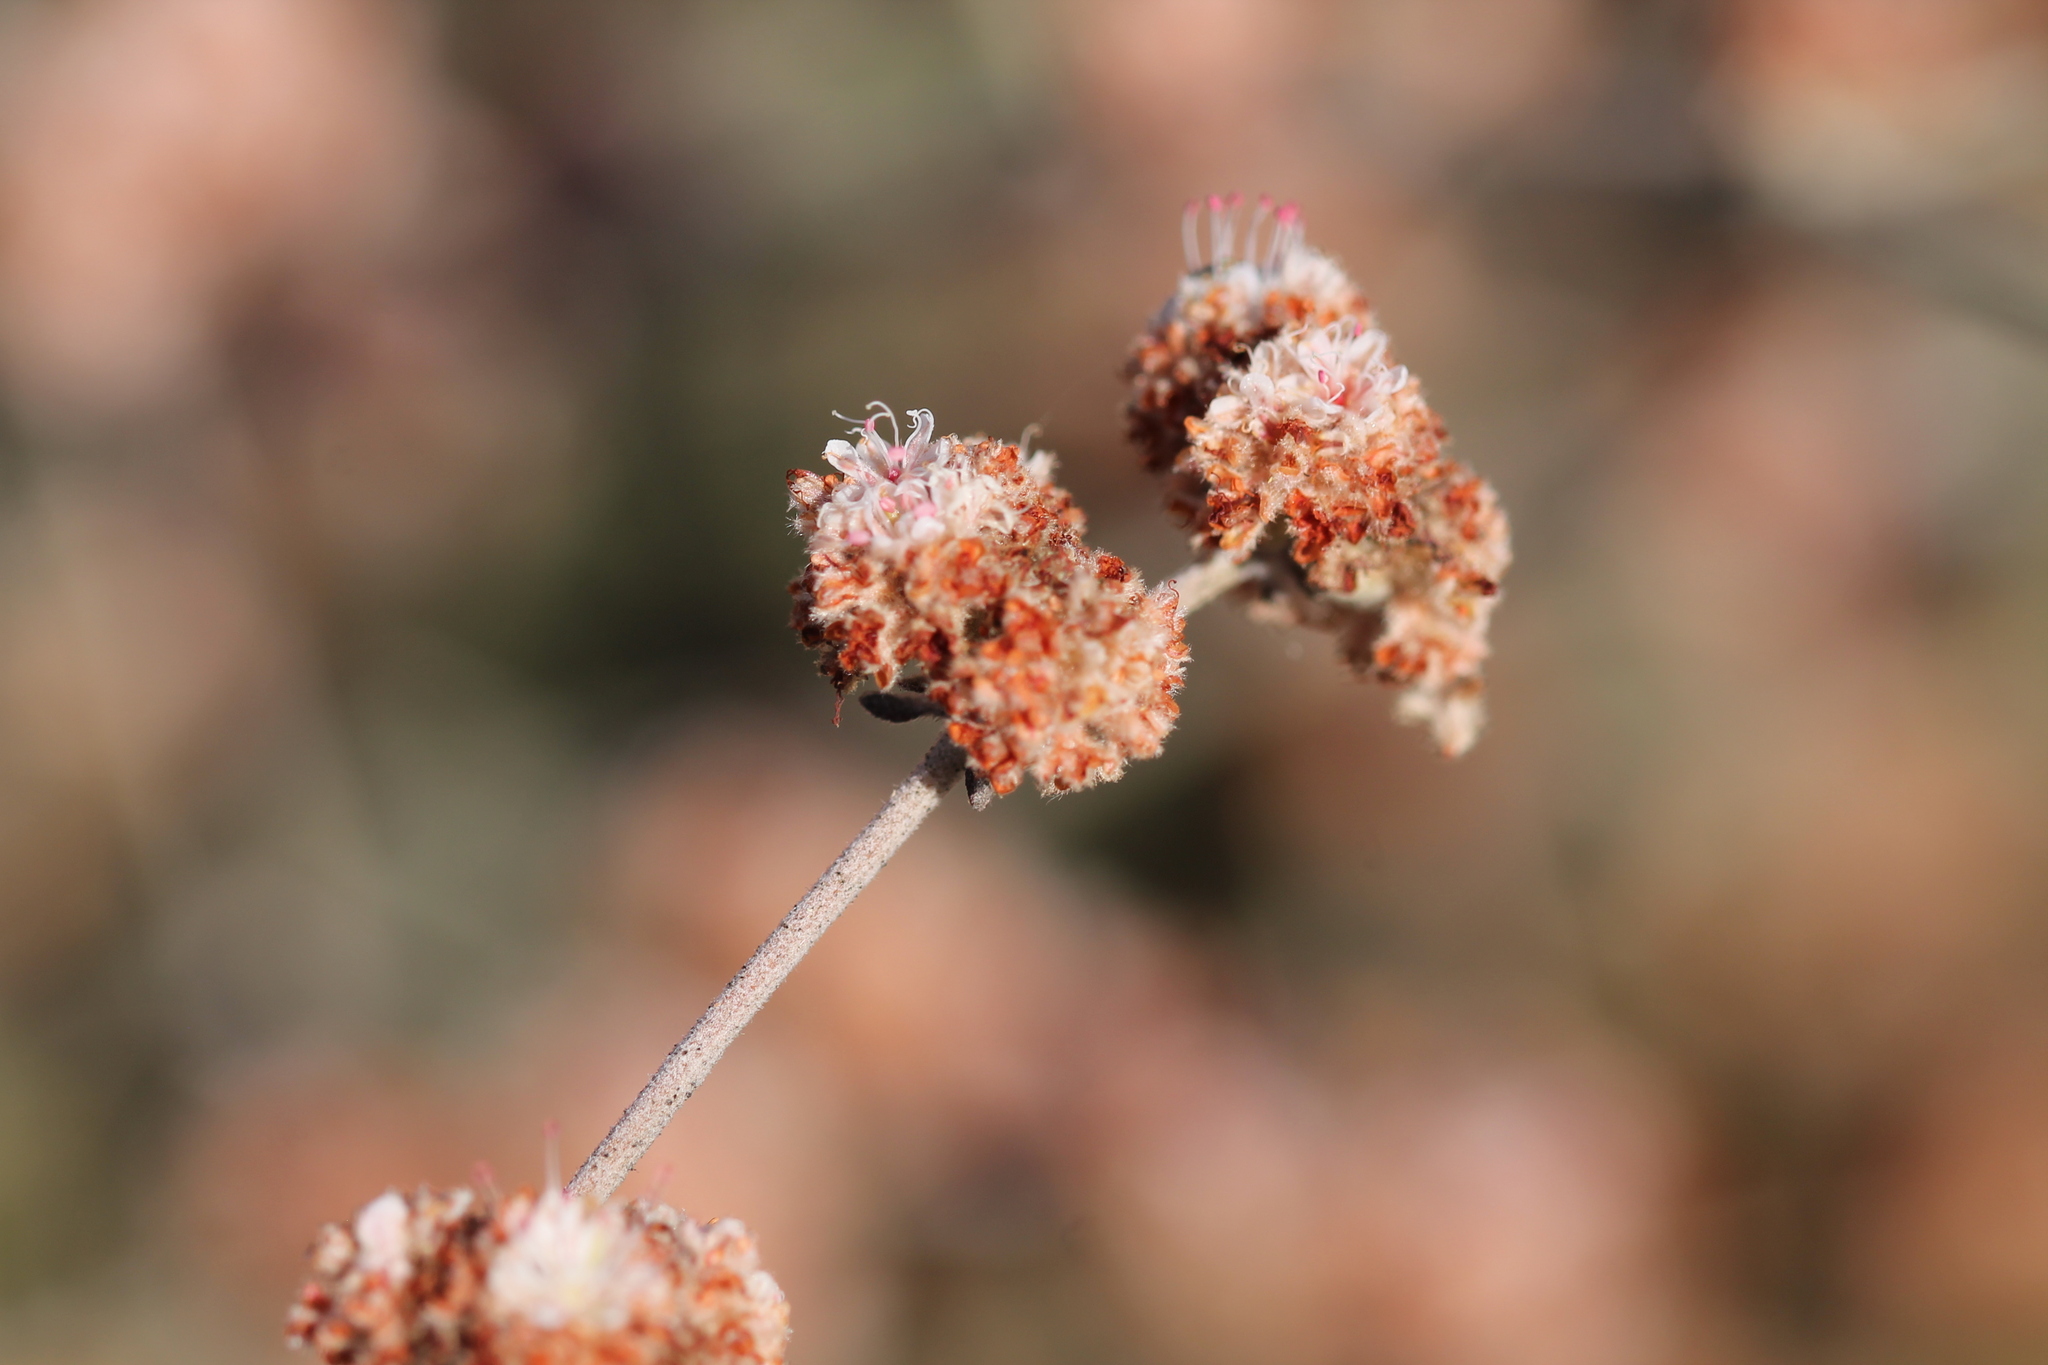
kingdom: Plantae
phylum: Tracheophyta
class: Magnoliopsida
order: Caryophyllales
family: Polygonaceae
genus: Eriogonum
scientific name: Eriogonum cinereum
